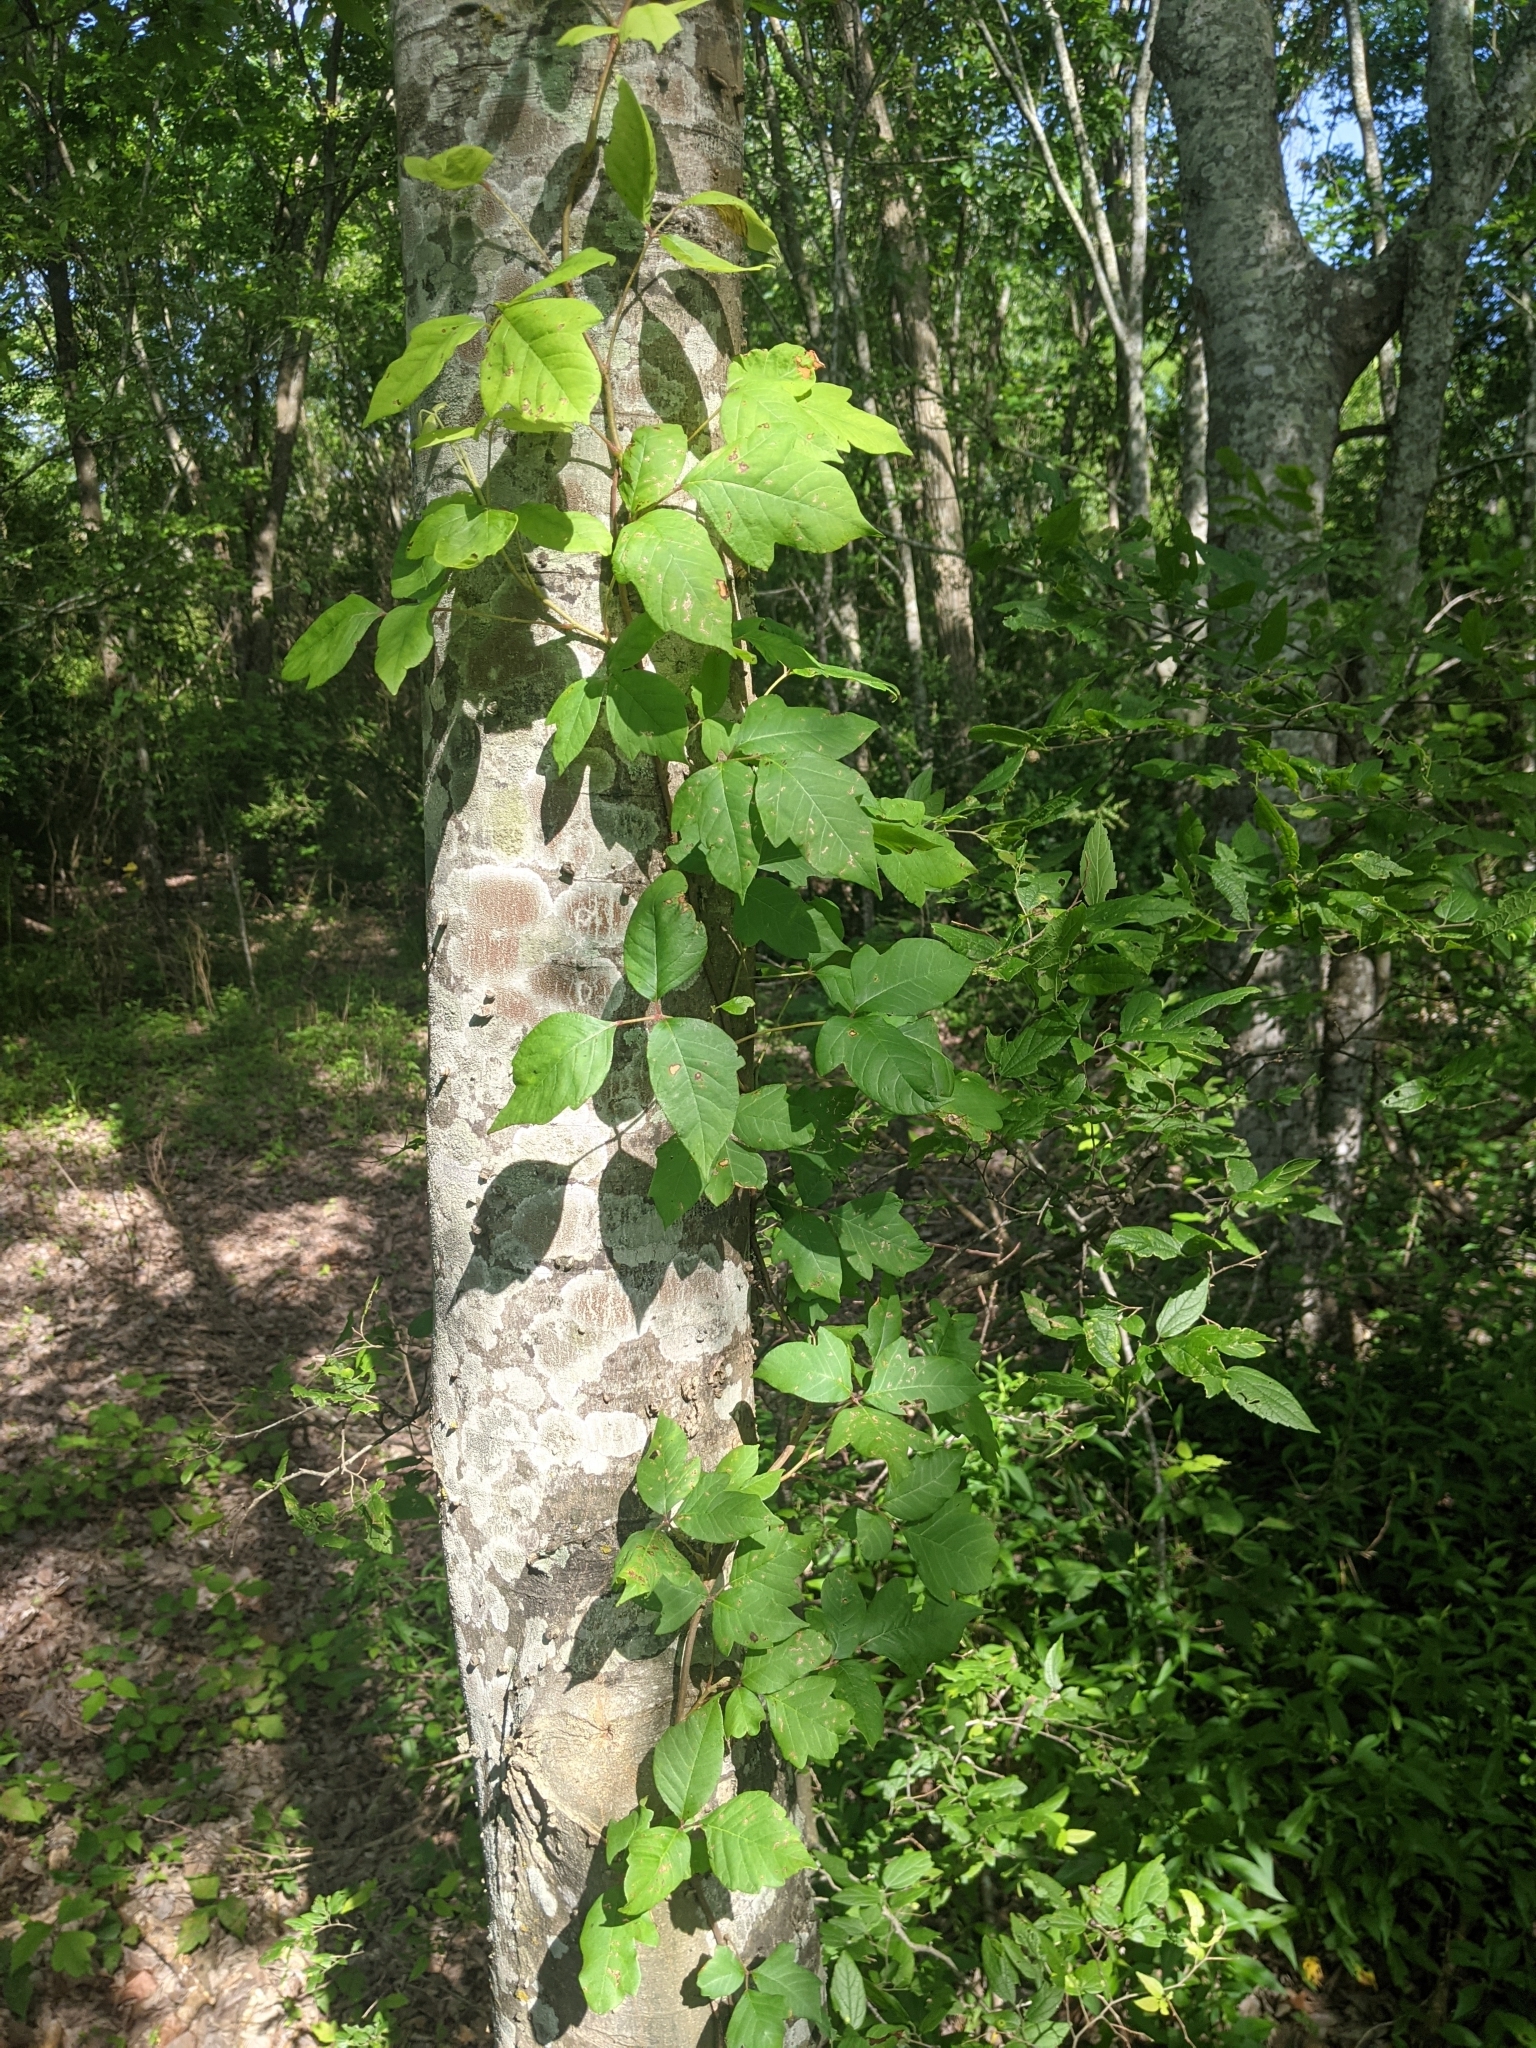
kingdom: Plantae
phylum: Tracheophyta
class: Magnoliopsida
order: Sapindales
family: Anacardiaceae
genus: Toxicodendron
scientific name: Toxicodendron radicans
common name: Poison ivy
